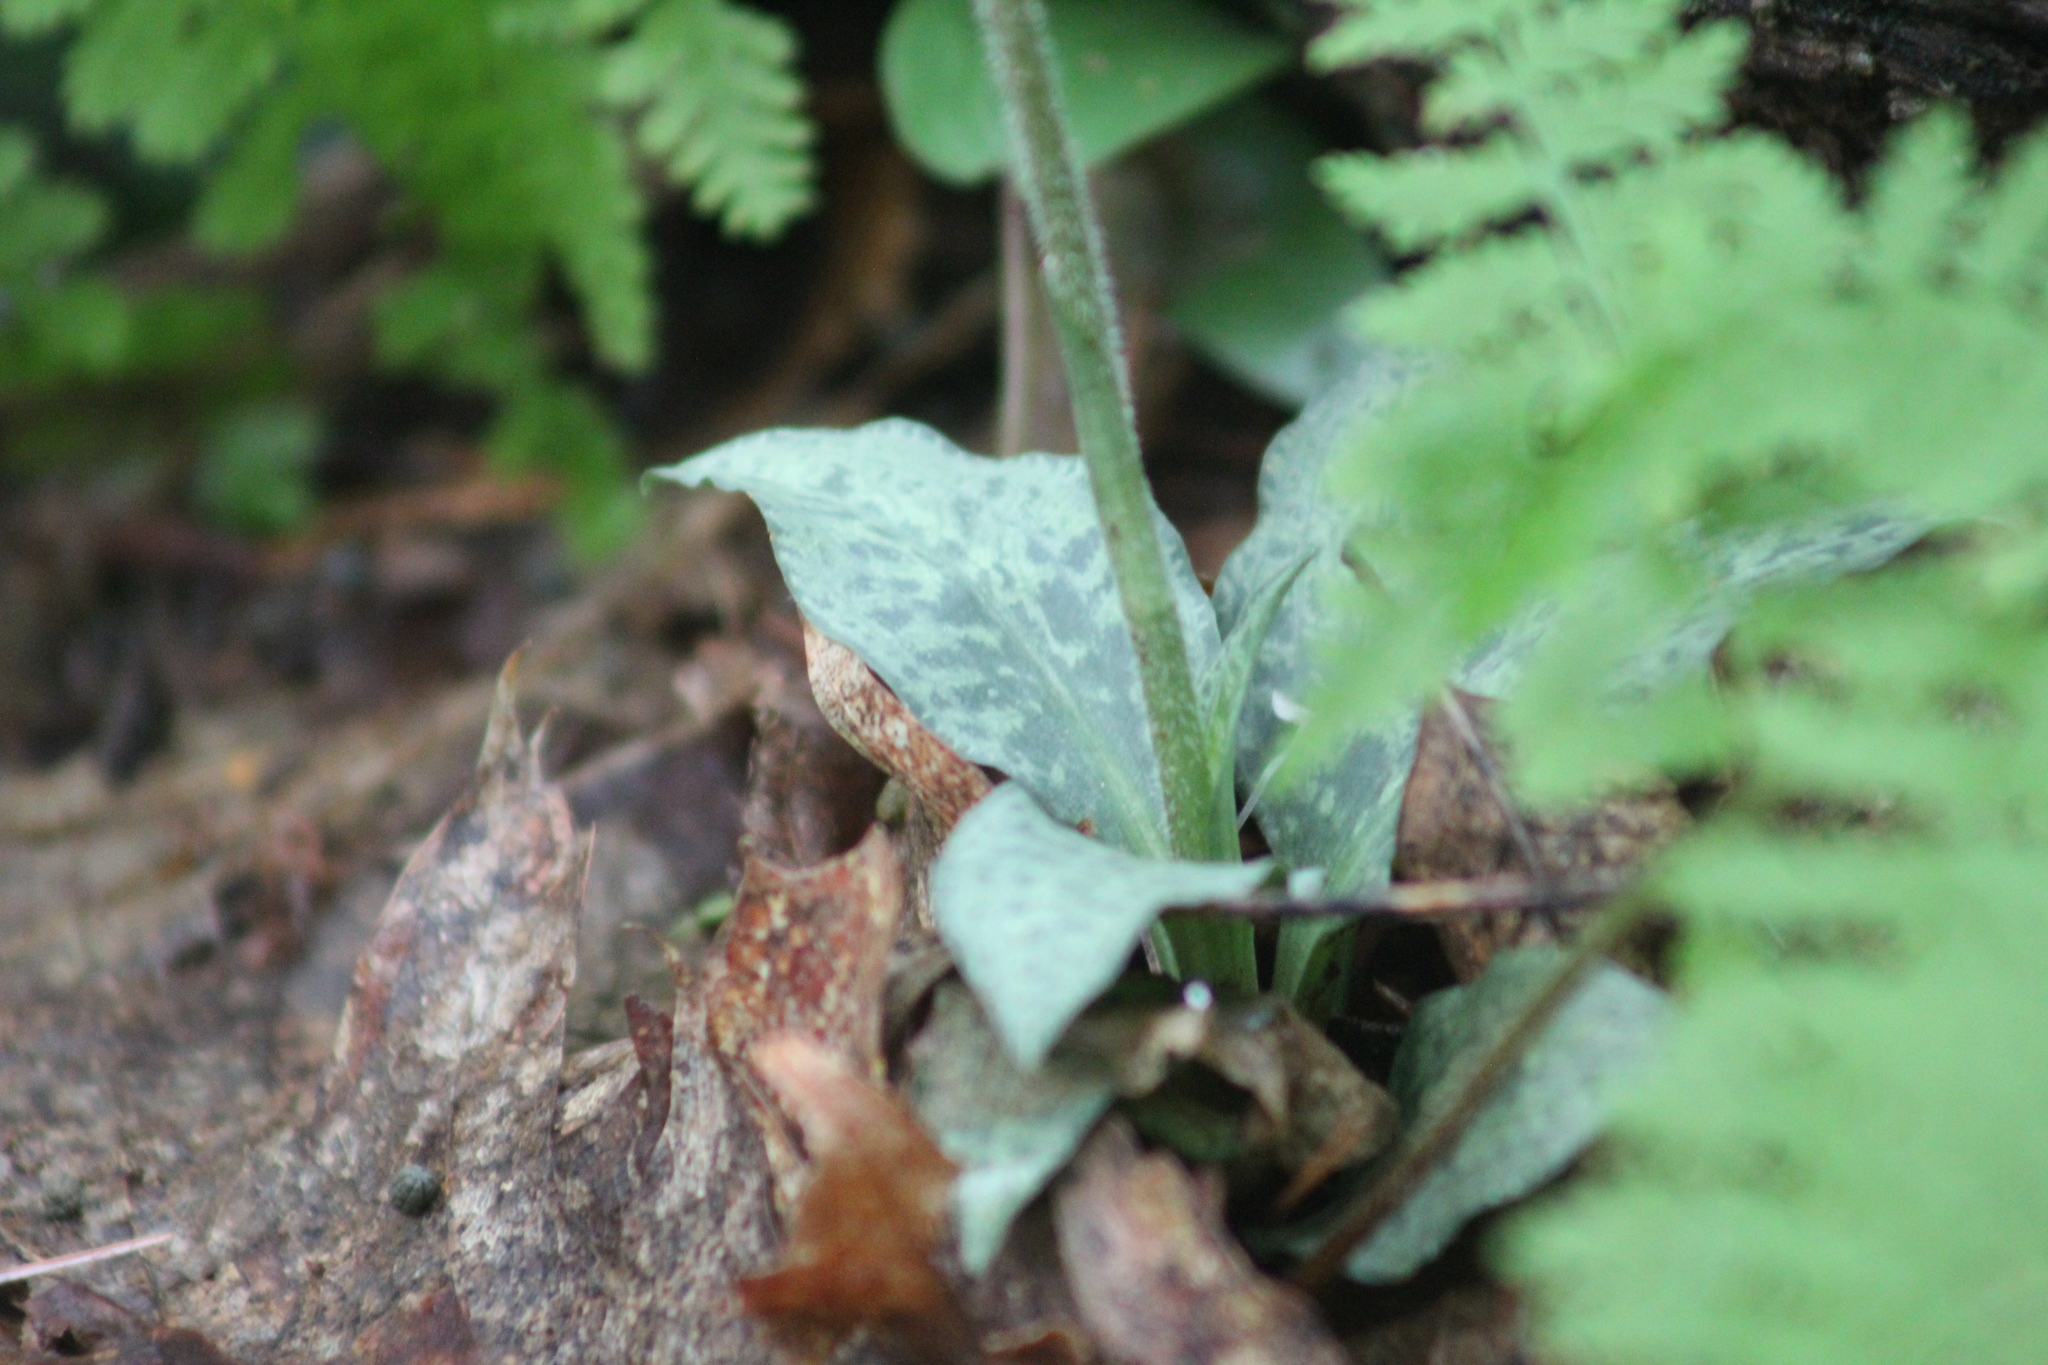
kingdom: Plantae
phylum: Tracheophyta
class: Liliopsida
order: Asparagales
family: Orchidaceae
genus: Goodyera
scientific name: Goodyera tesselata
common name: Checkered rattlesnake-plantain
